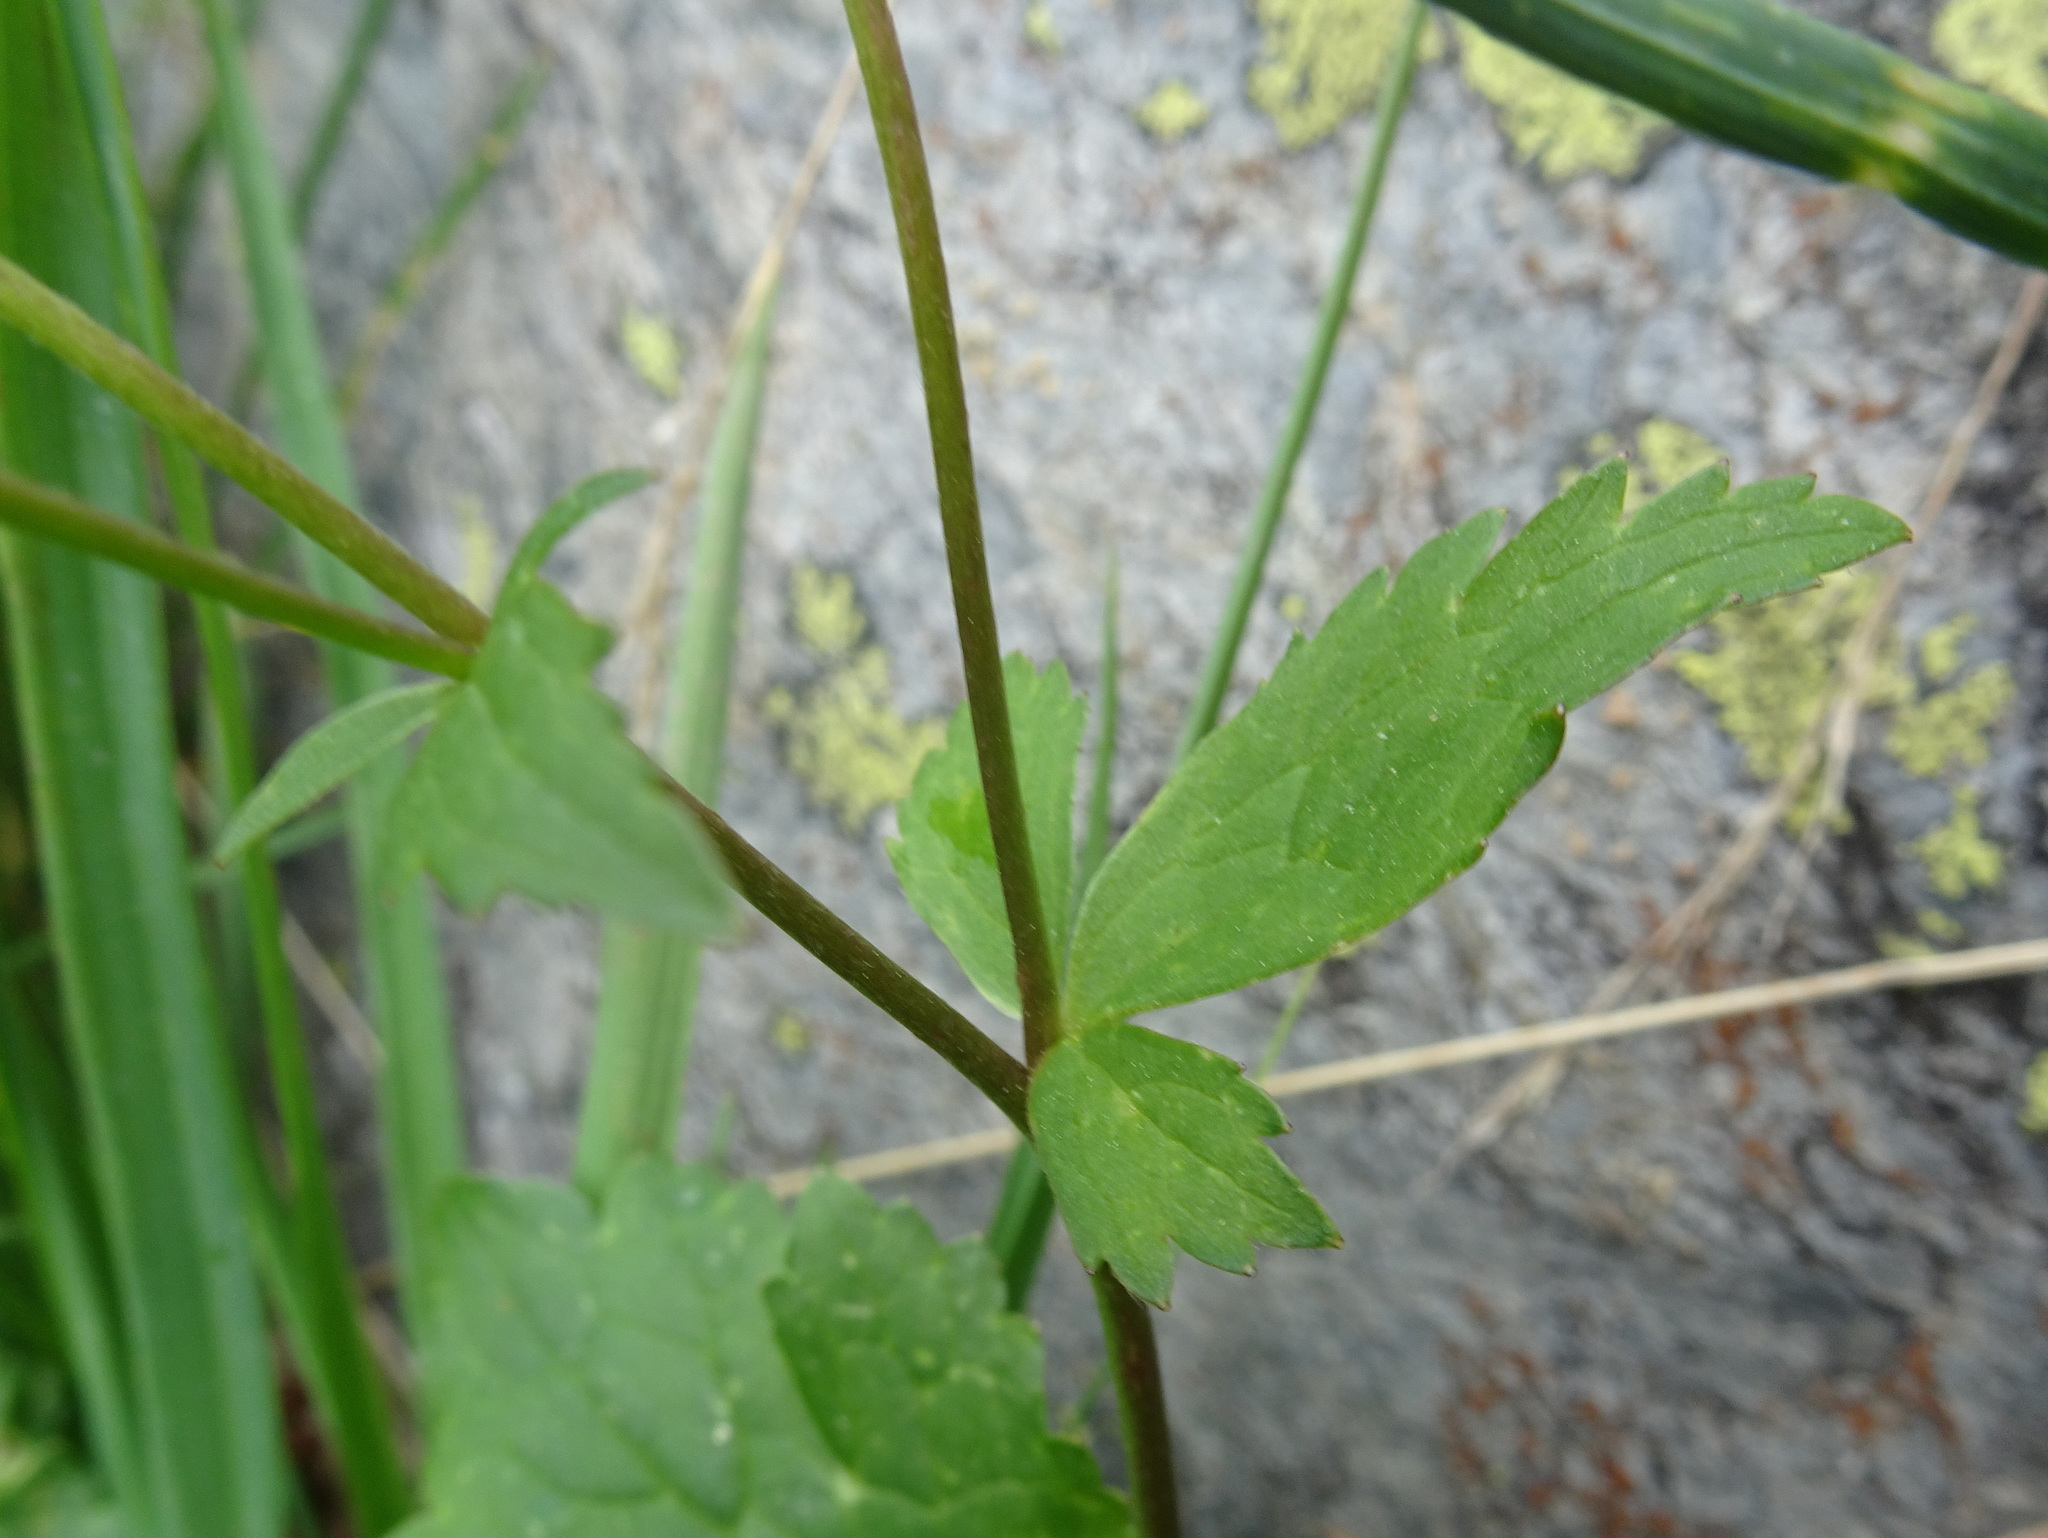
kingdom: Plantae
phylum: Tracheophyta
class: Magnoliopsida
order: Ranunculales
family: Ranunculaceae
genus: Ranunculus
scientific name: Ranunculus aconitifolius
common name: Aconite-leaved buttercup
